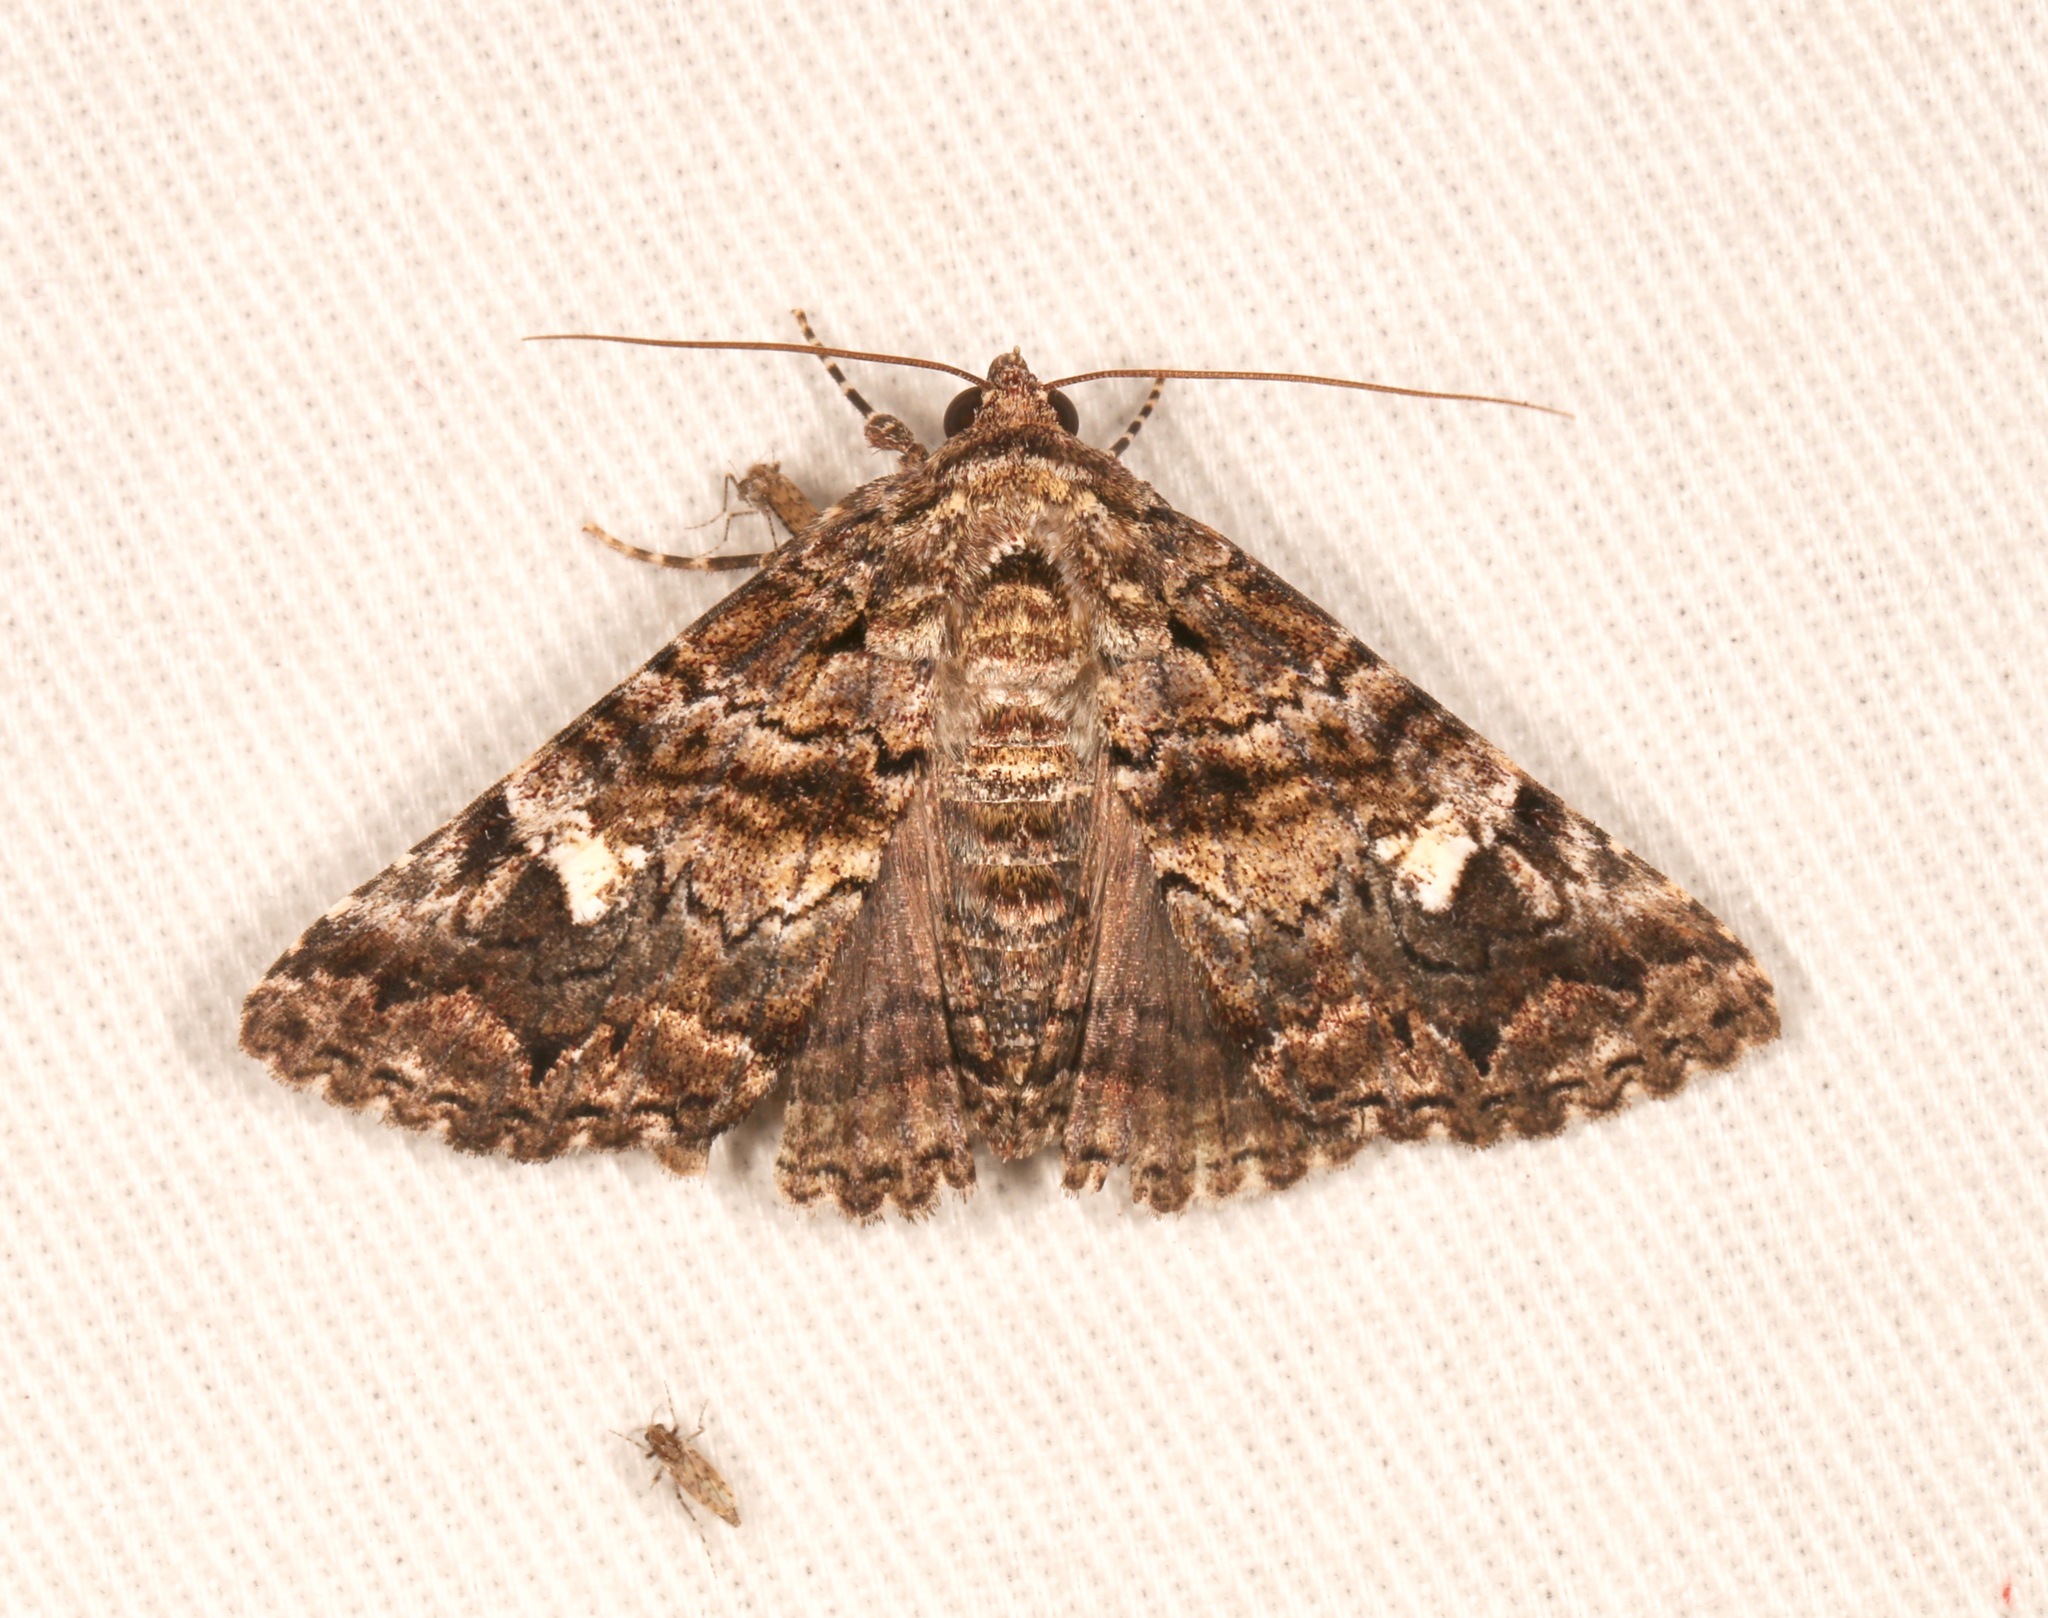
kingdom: Animalia
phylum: Arthropoda
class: Insecta
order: Lepidoptera
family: Erebidae
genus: Metria
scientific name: Metria amella
